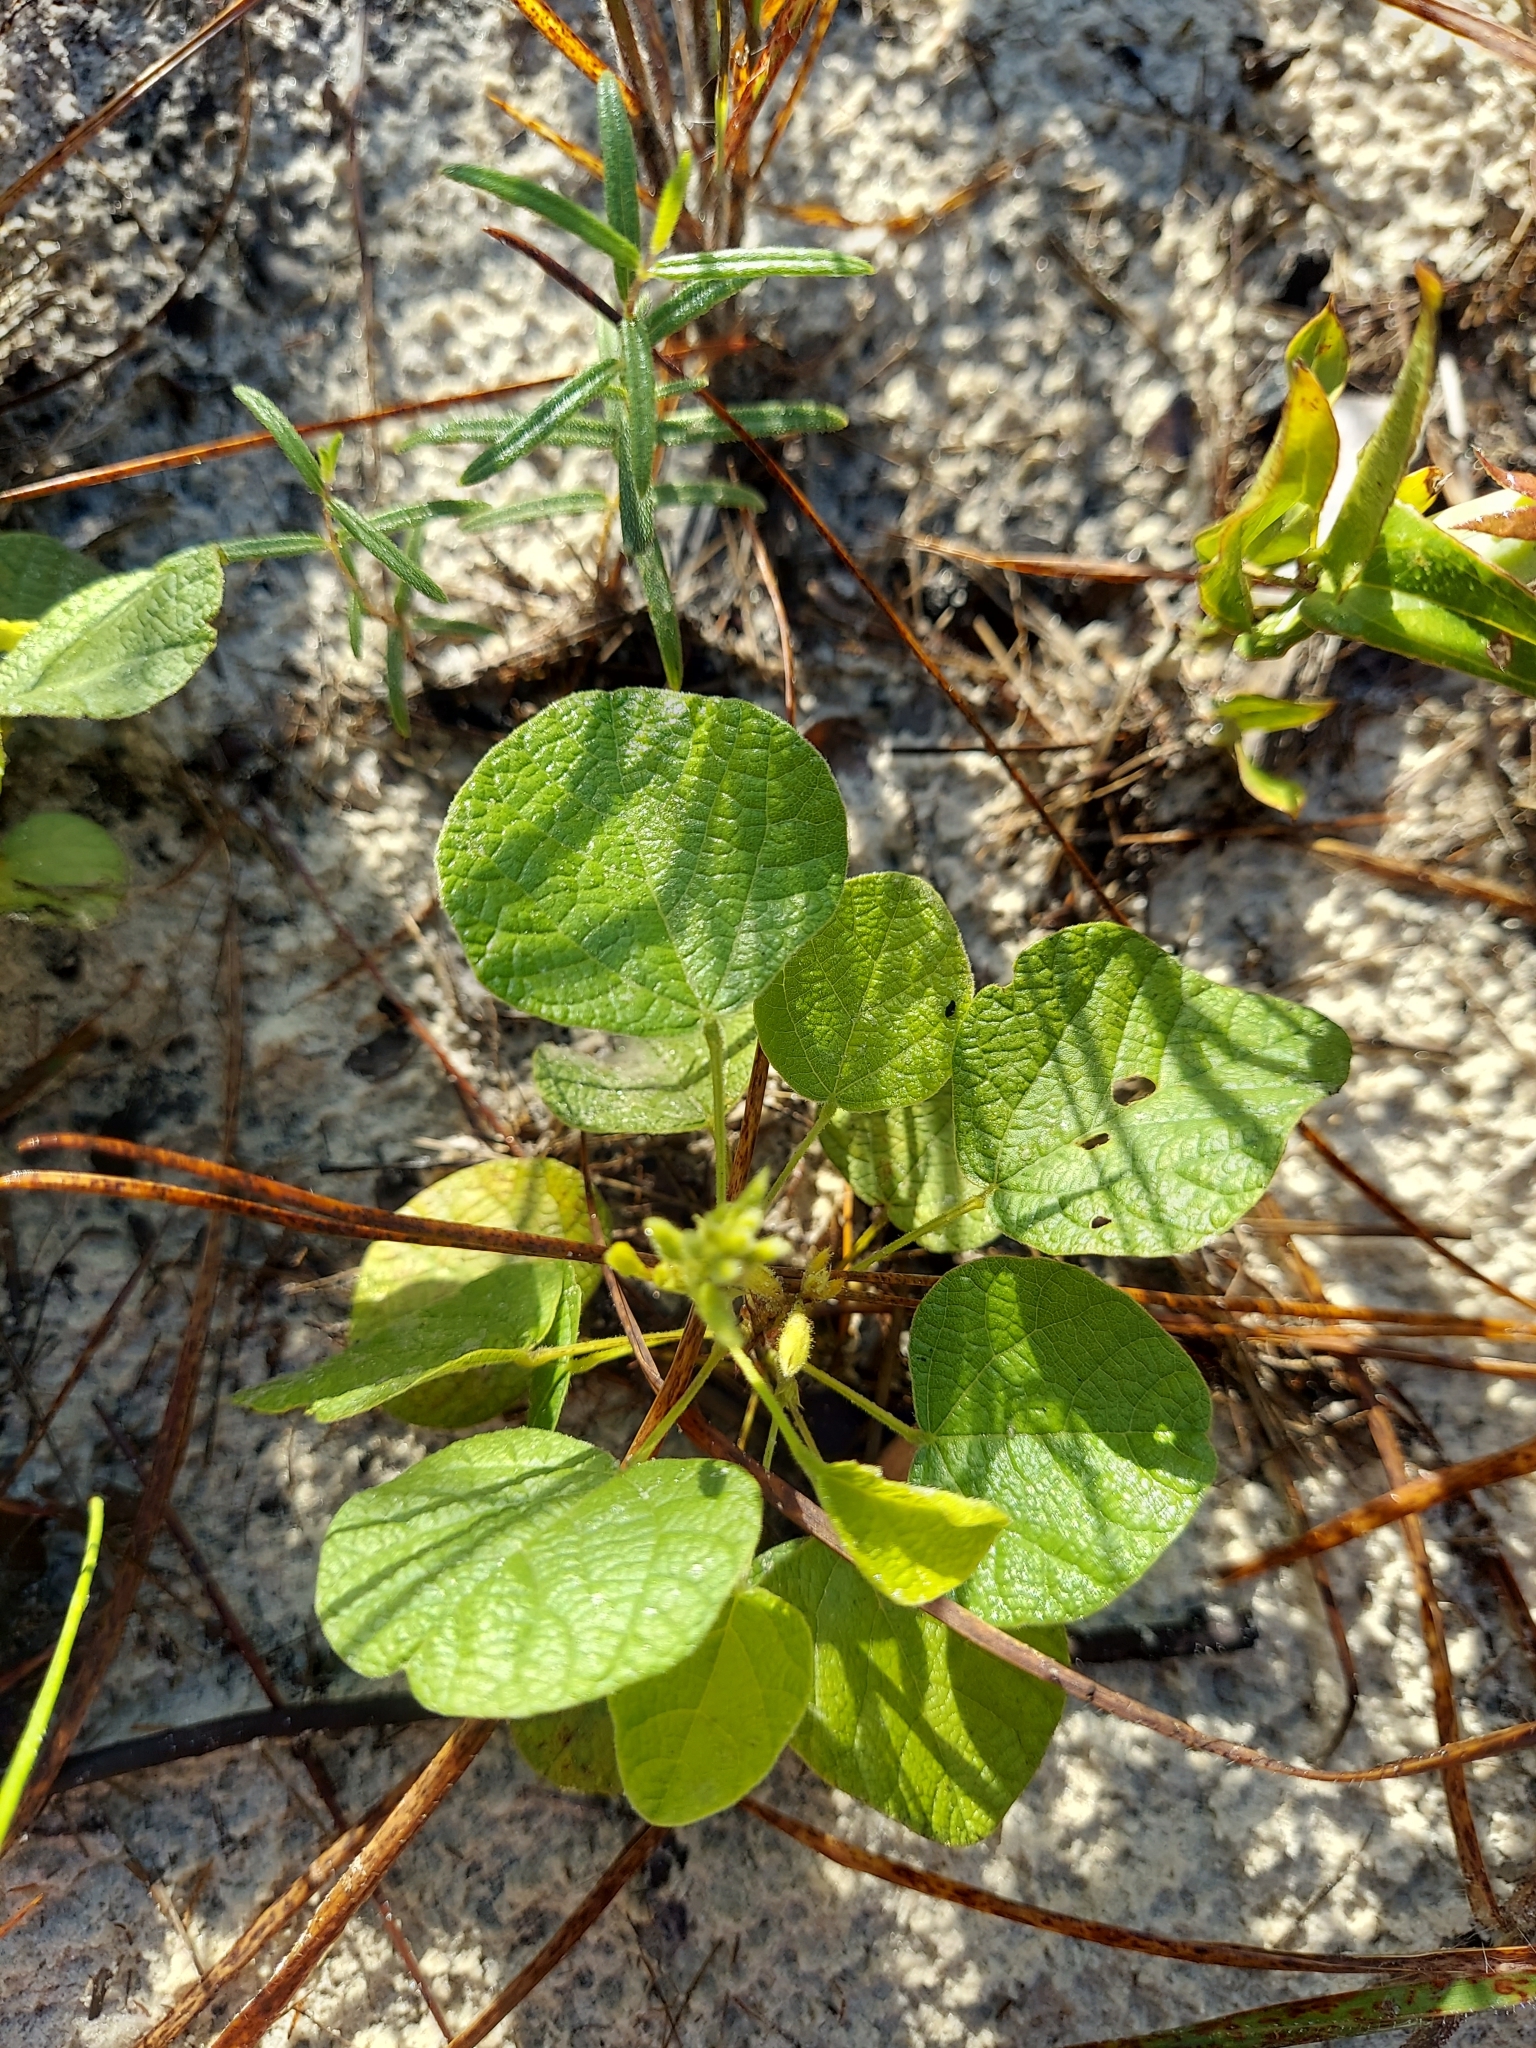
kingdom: Plantae
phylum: Tracheophyta
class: Magnoliopsida
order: Fabales
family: Fabaceae
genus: Rhynchosia
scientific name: Rhynchosia reniformis
